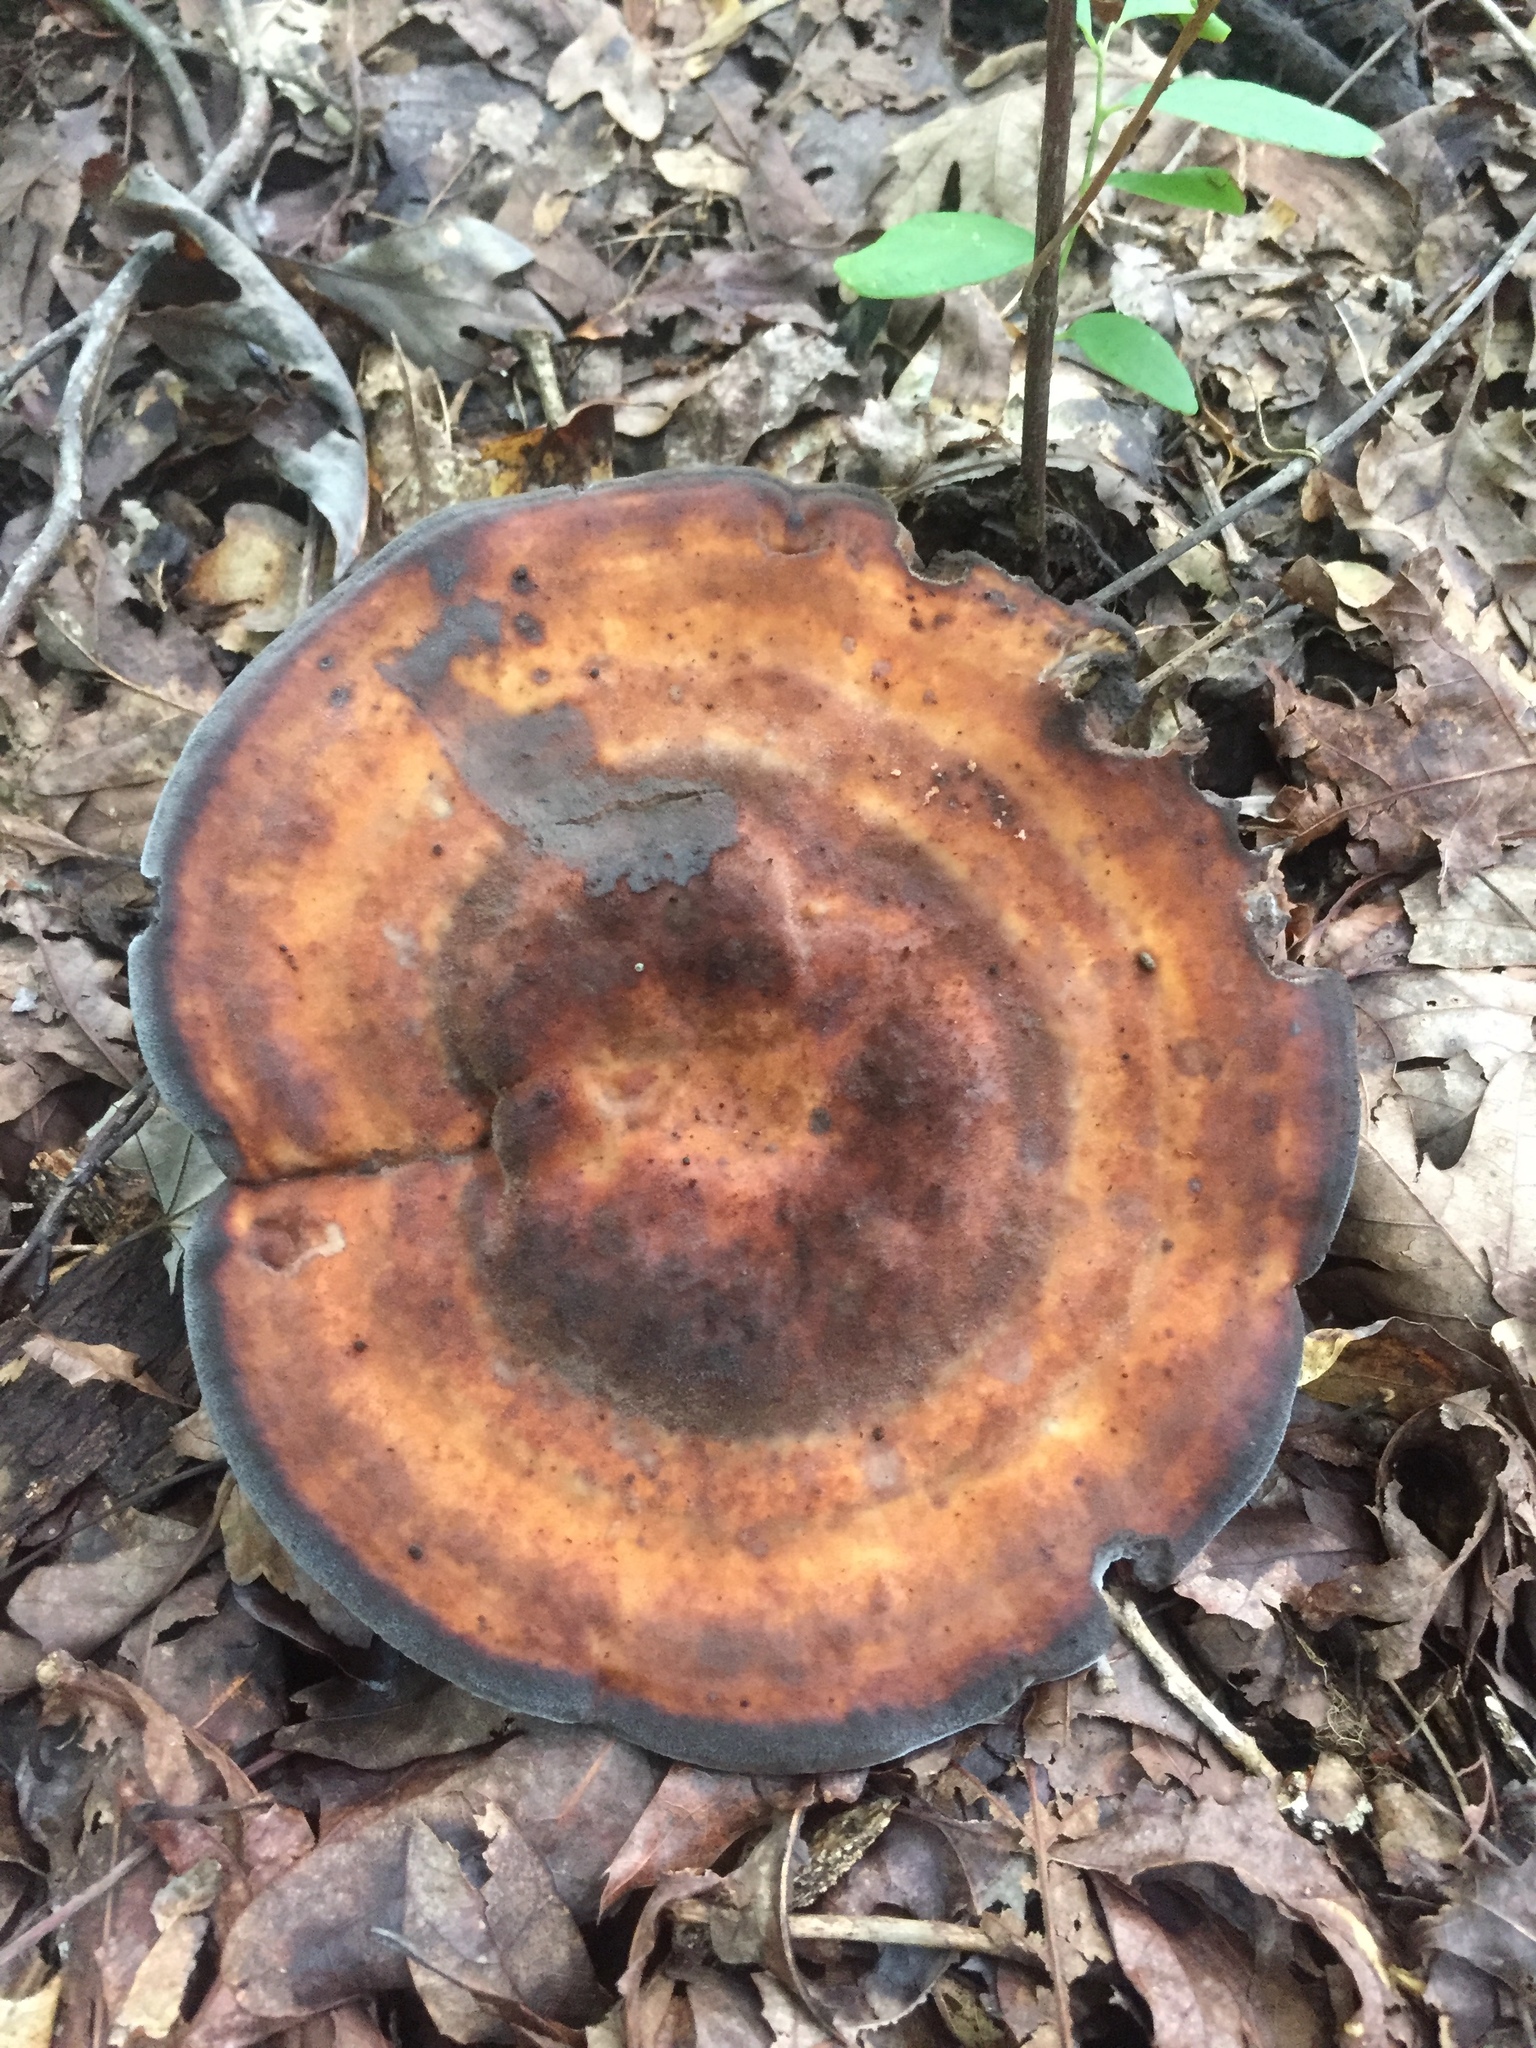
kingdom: Fungi
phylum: Basidiomycota
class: Agaricomycetes
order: Polyporales
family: Laetiporaceae
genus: Berkcurtia
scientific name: Berkcurtia persicina
